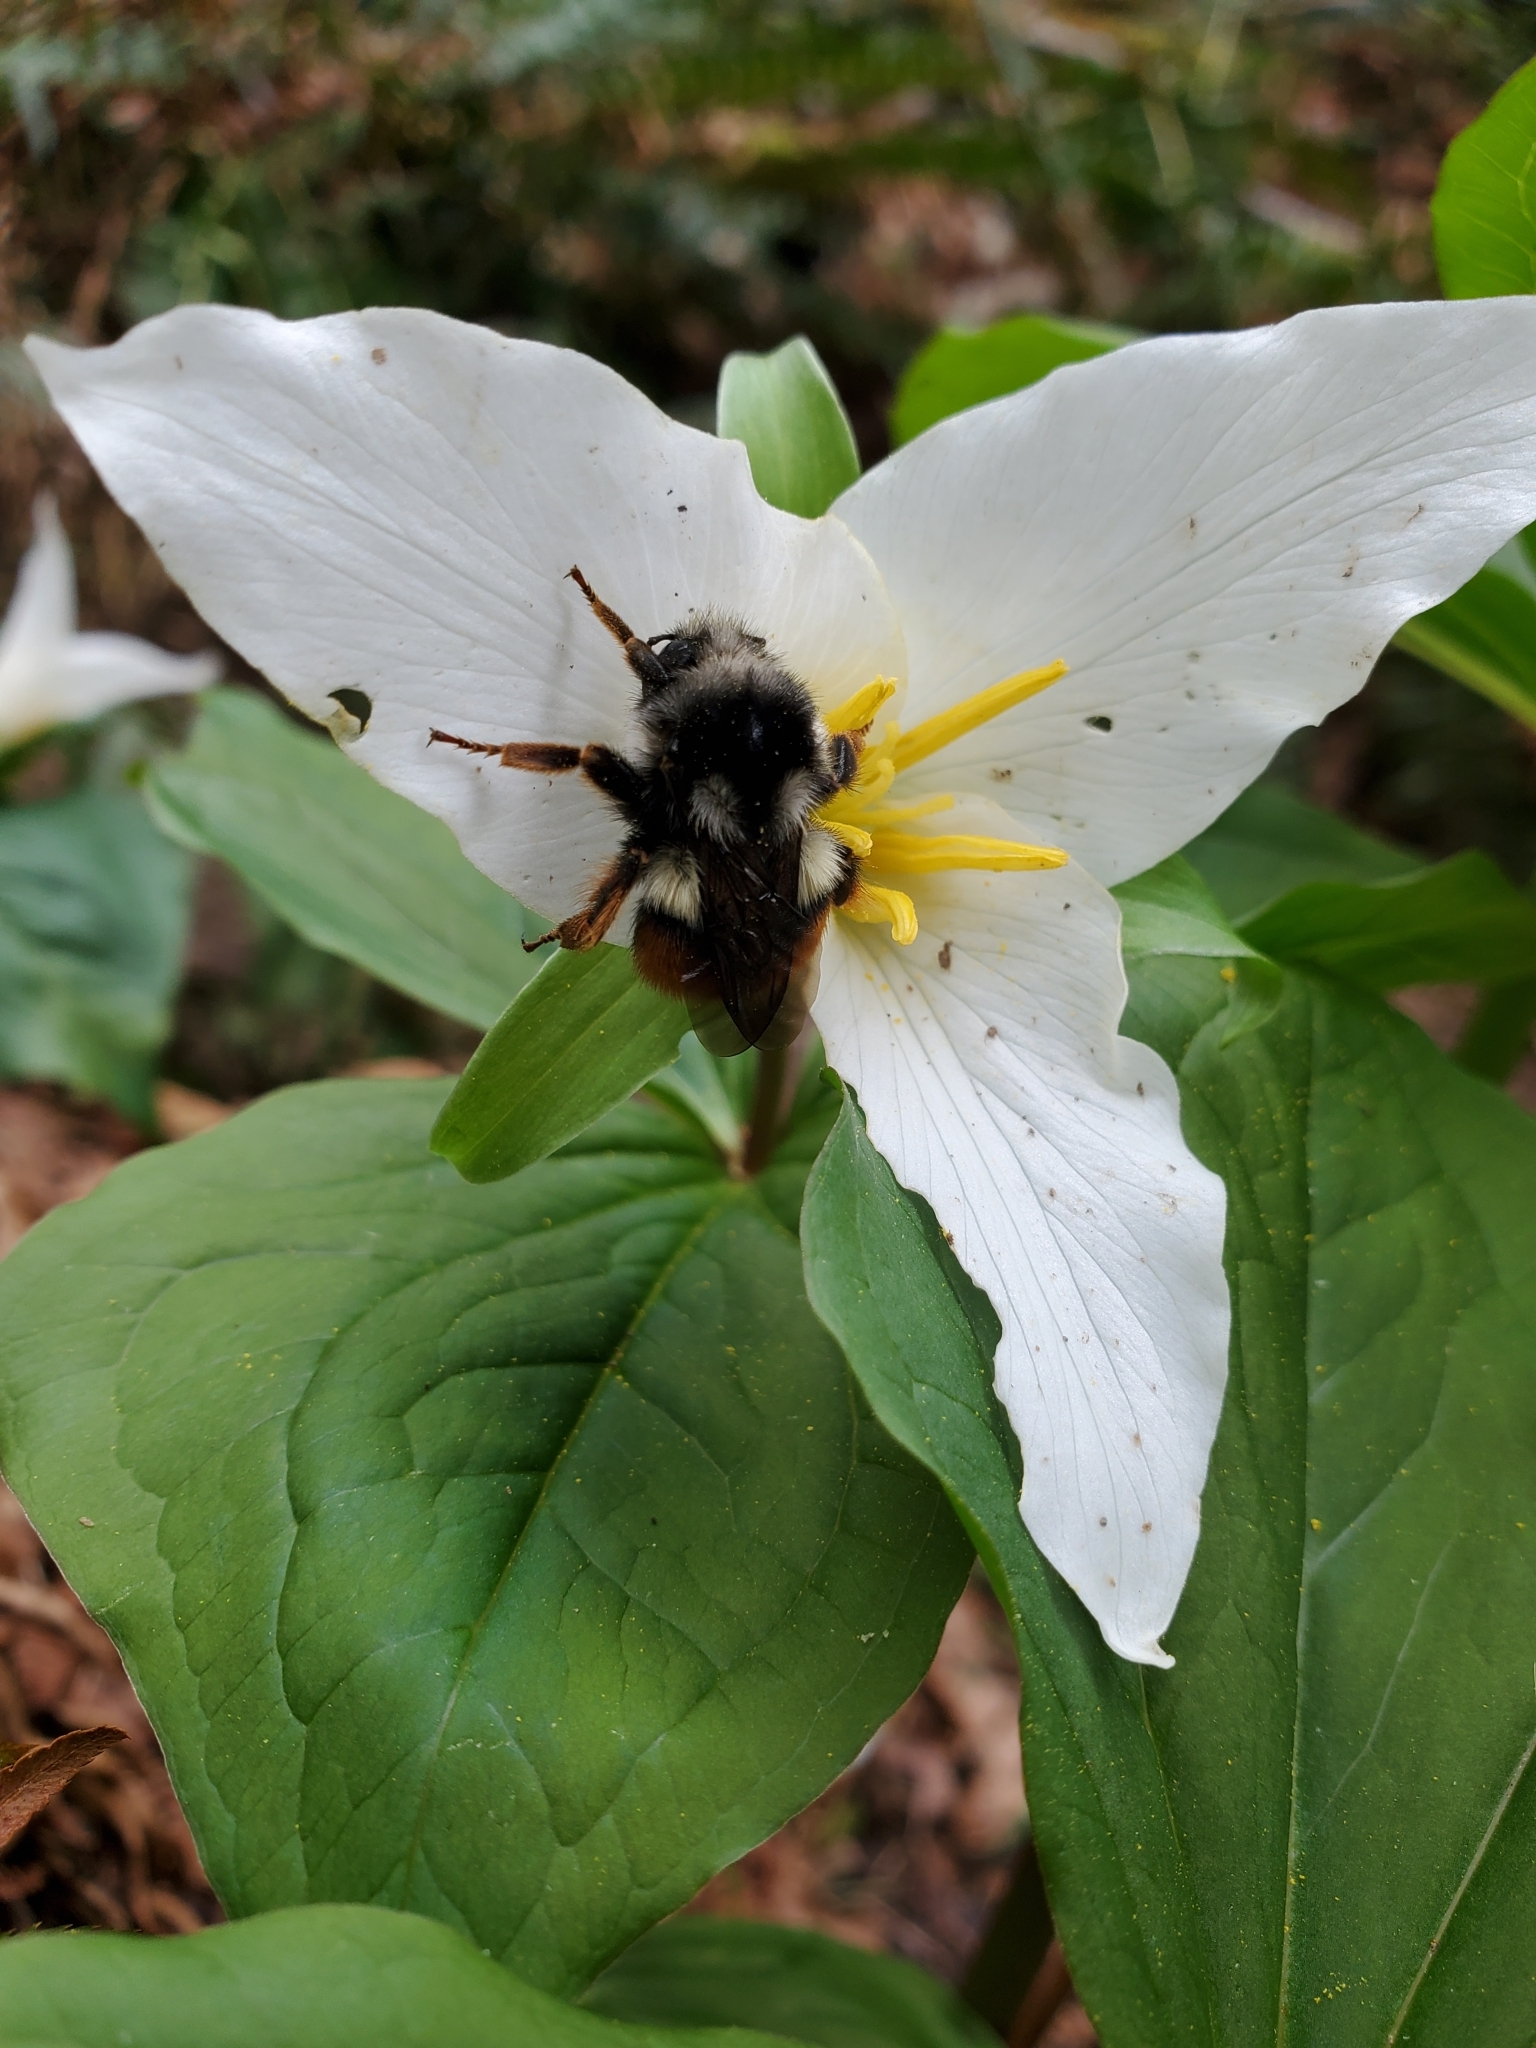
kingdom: Animalia
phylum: Arthropoda
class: Insecta
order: Hymenoptera
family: Apidae
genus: Bombus
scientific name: Bombus vancouverensis
